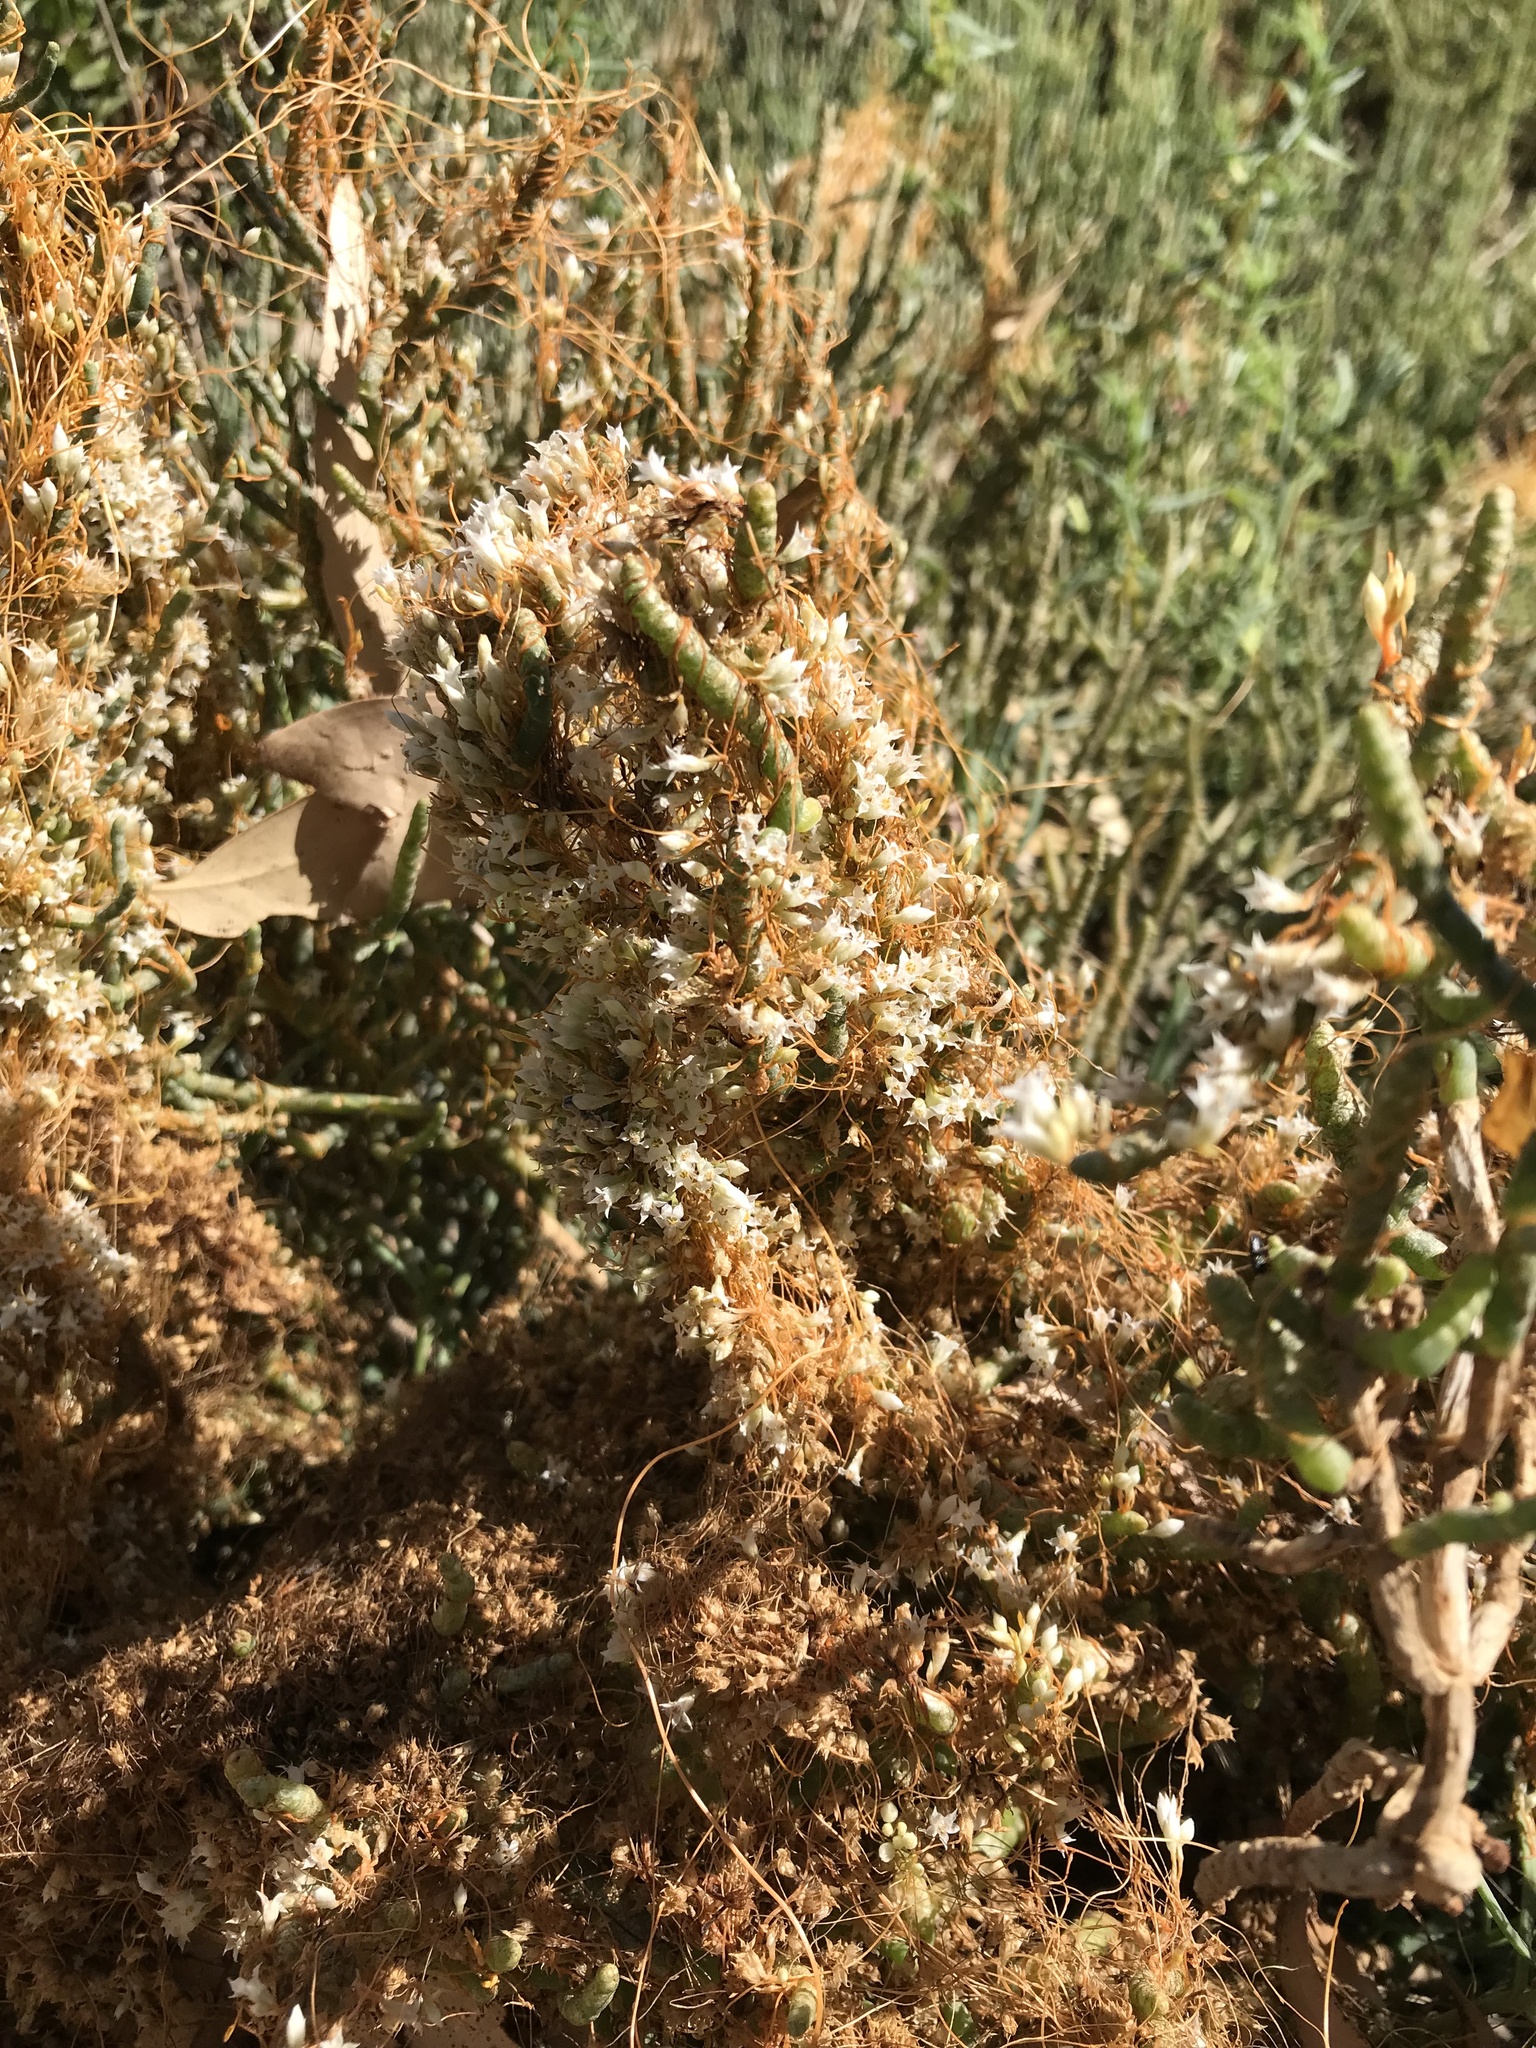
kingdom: Plantae
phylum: Tracheophyta
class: Magnoliopsida
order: Solanales
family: Convolvulaceae
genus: Cuscuta
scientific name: Cuscuta pacifica
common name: Large saltmarsh dodder
